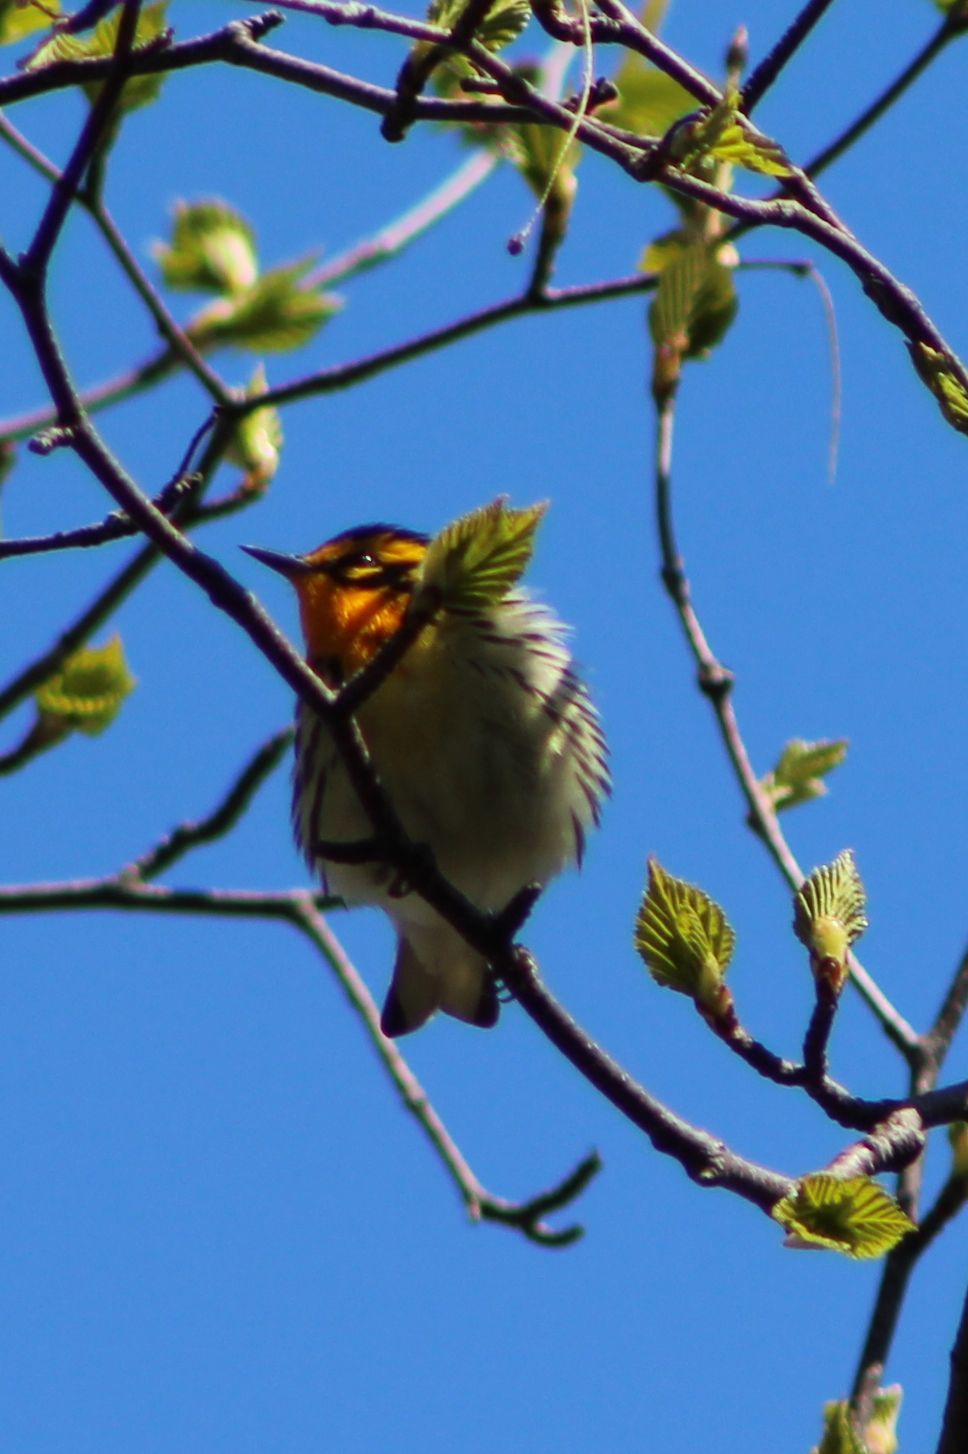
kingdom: Animalia
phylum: Chordata
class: Aves
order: Passeriformes
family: Parulidae
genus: Setophaga
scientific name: Setophaga fusca
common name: Blackburnian warbler
